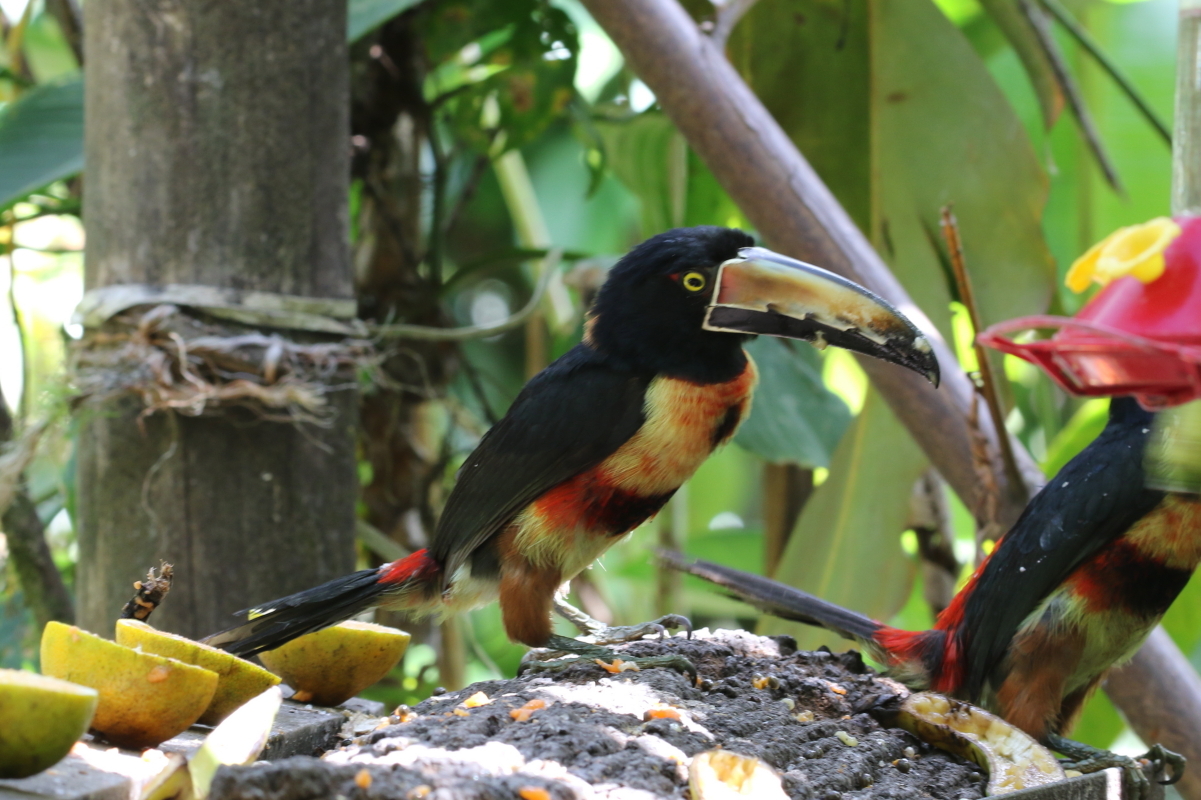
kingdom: Animalia
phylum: Chordata
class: Aves
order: Piciformes
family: Ramphastidae
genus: Pteroglossus
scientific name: Pteroglossus torquatus
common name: Collared aracari
